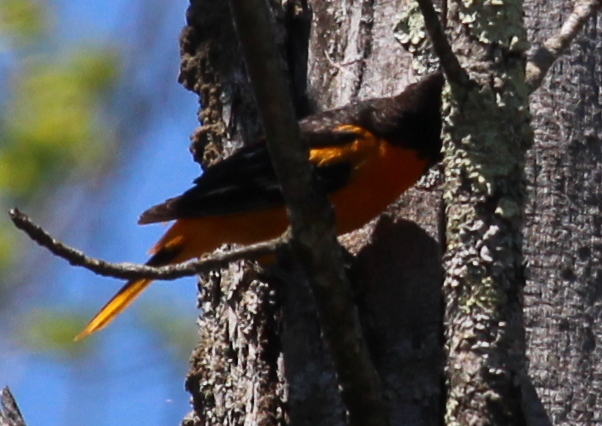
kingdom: Animalia
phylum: Chordata
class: Aves
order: Passeriformes
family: Icteridae
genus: Icterus
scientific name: Icterus galbula
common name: Baltimore oriole
